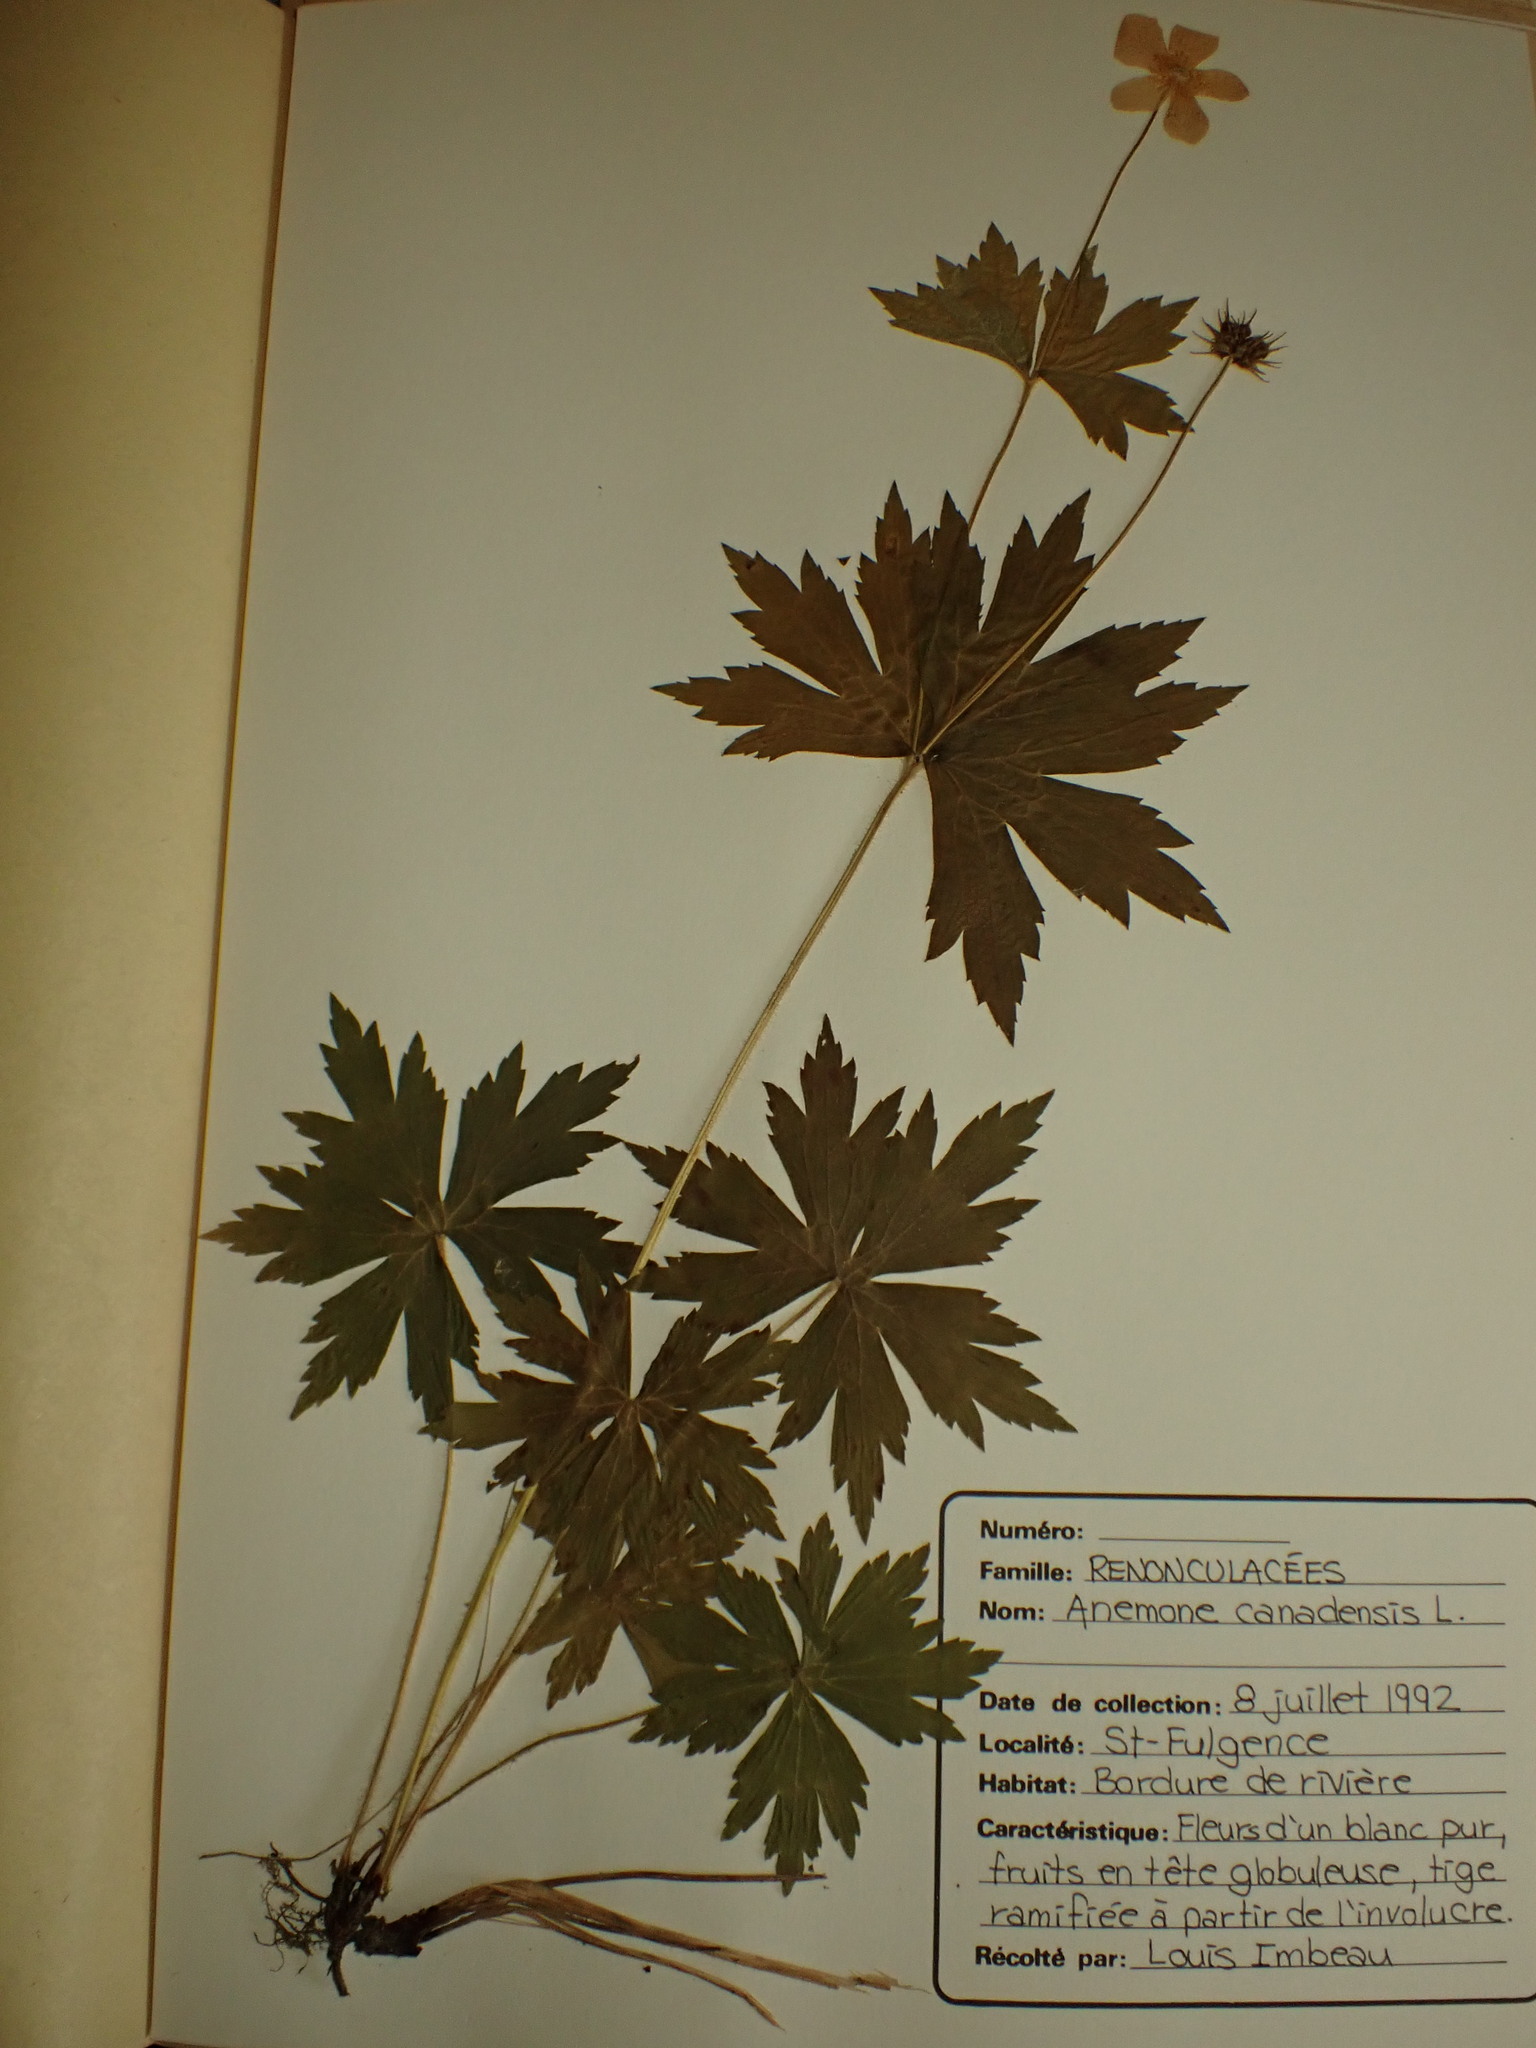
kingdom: Plantae
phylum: Tracheophyta
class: Magnoliopsida
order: Ranunculales
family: Ranunculaceae
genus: Anemonastrum
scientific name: Anemonastrum canadense
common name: Canada anemone
